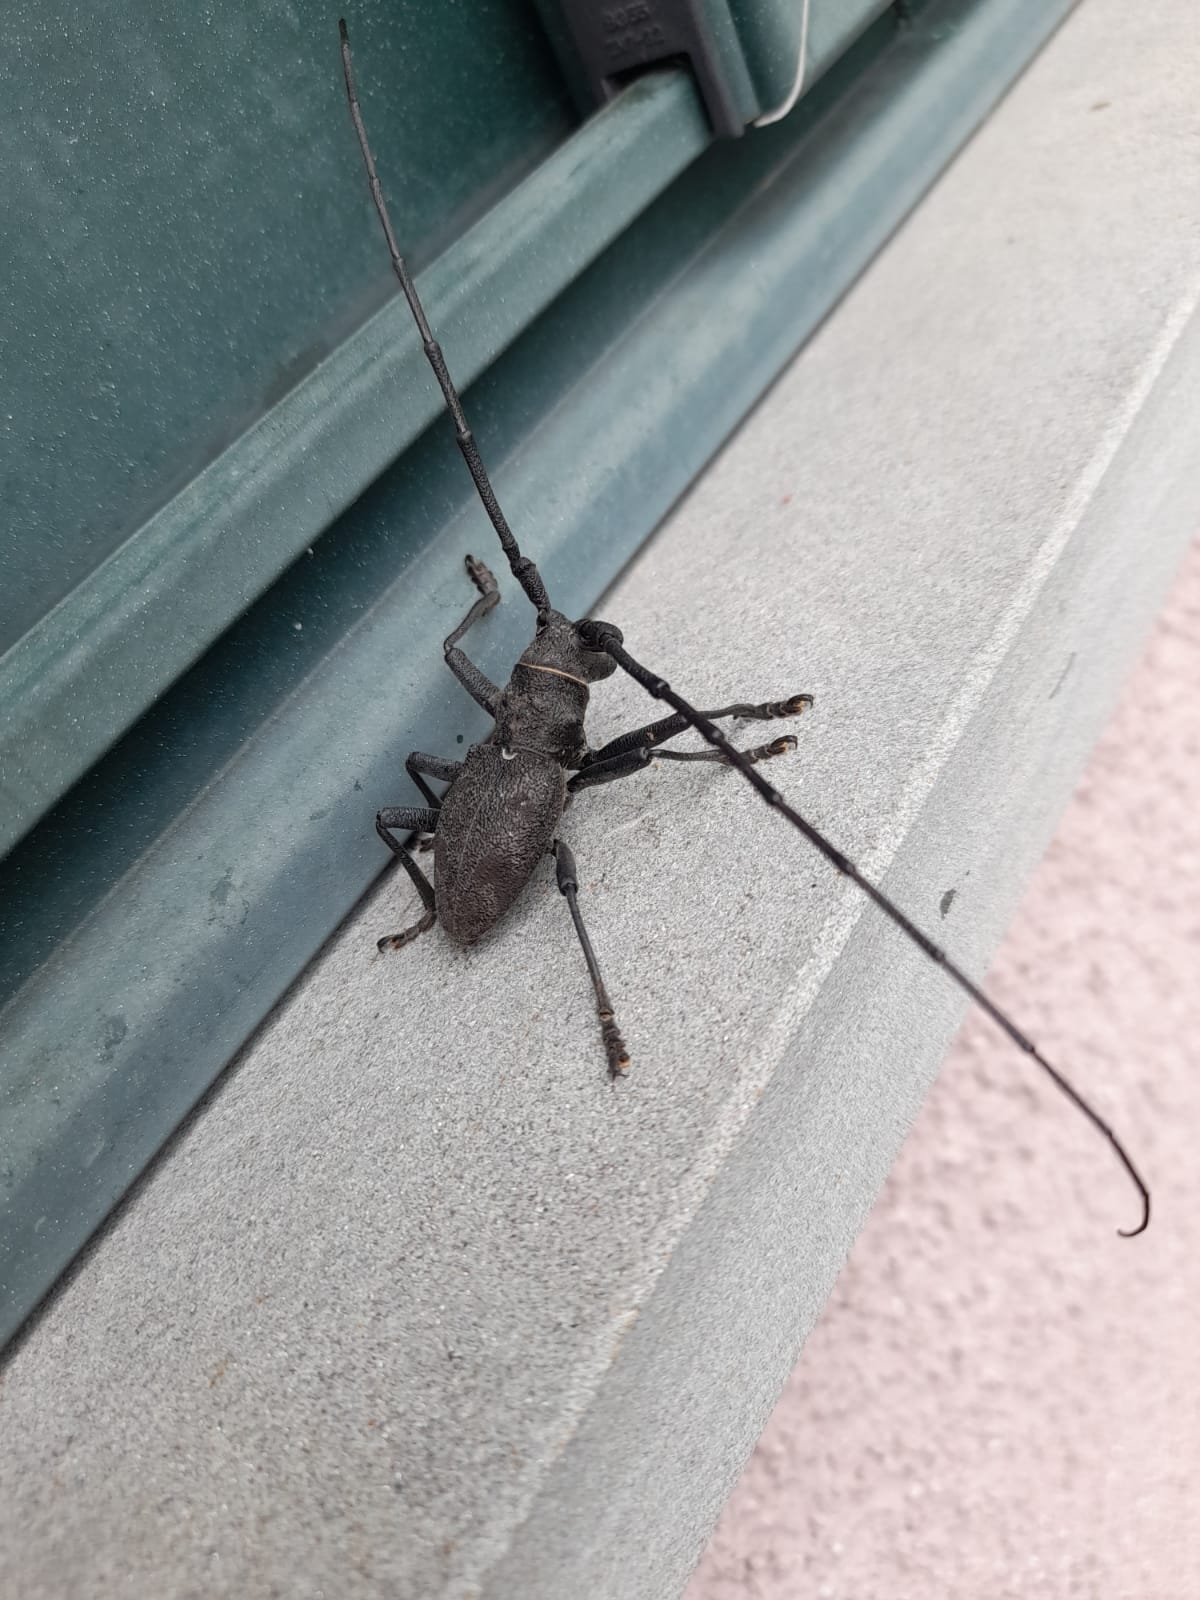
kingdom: Animalia
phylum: Arthropoda
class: Insecta
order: Coleoptera
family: Cerambycidae
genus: Morimus
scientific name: Morimus asper
